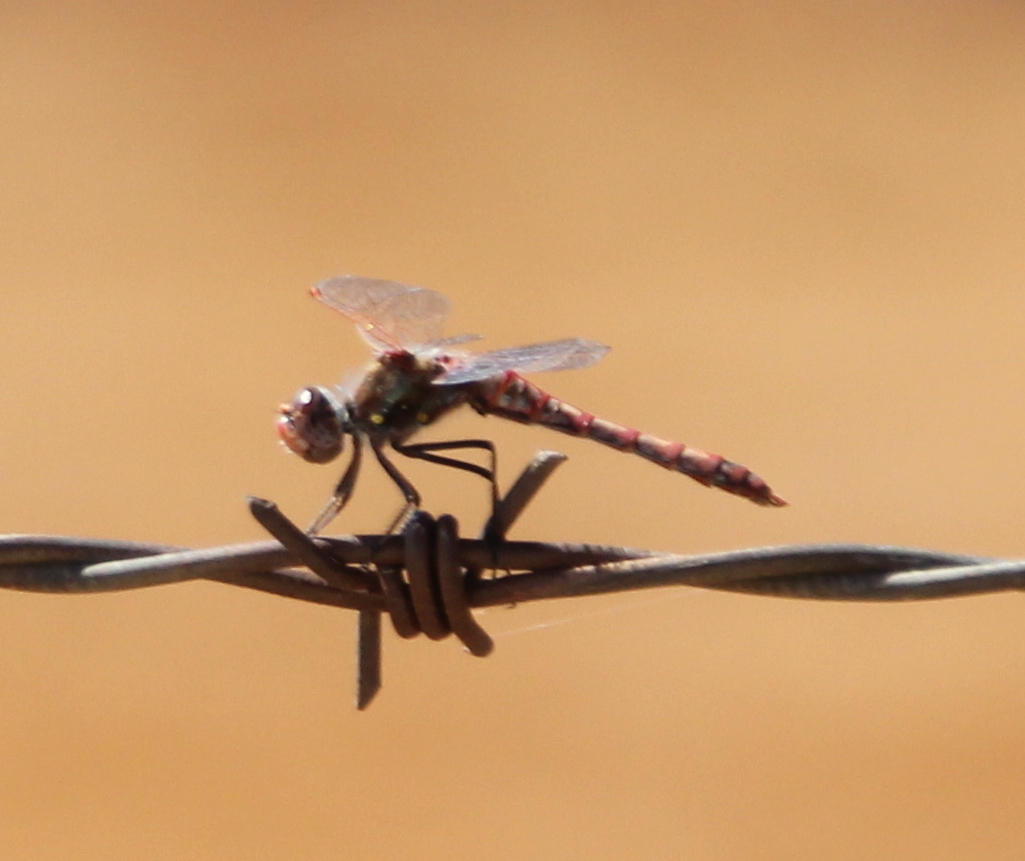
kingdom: Animalia
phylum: Arthropoda
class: Insecta
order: Odonata
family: Libellulidae
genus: Sympetrum
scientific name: Sympetrum corruptum
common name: Variegated meadowhawk
